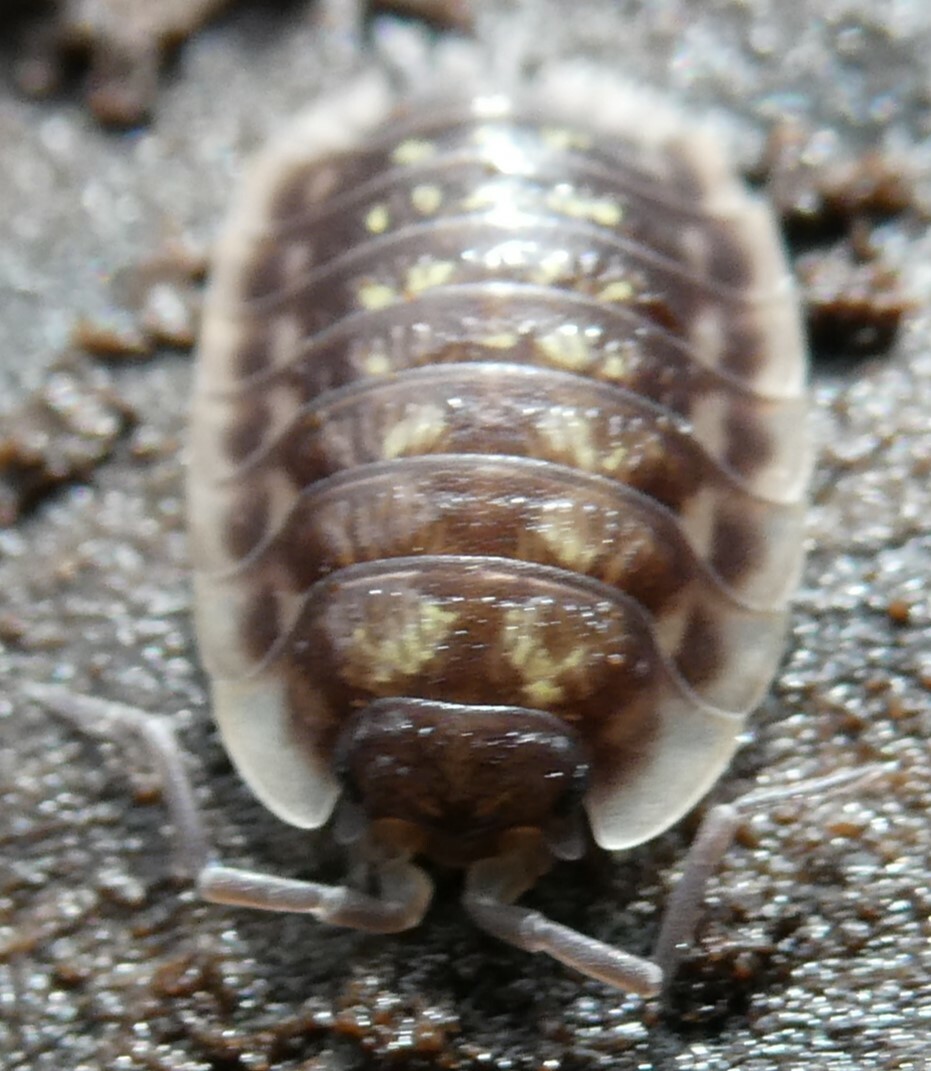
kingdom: Animalia
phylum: Arthropoda
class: Malacostraca
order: Isopoda
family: Oniscidae
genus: Oniscus
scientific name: Oniscus asellus
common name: Common shiny woodlouse
